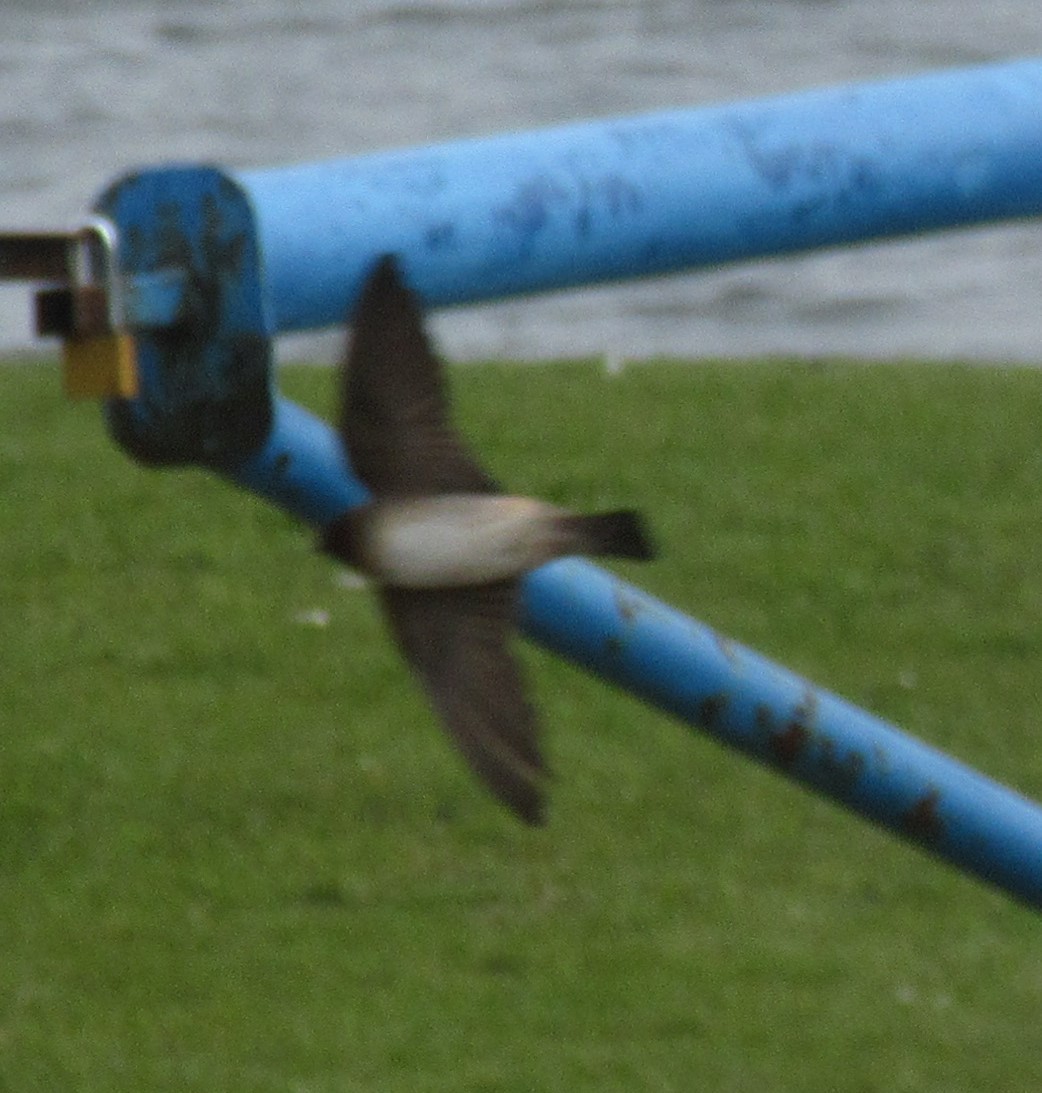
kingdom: Animalia
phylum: Chordata
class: Aves
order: Passeriformes
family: Hirundinidae
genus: Stelgidopteryx
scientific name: Stelgidopteryx serripennis
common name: Northern rough-winged swallow
